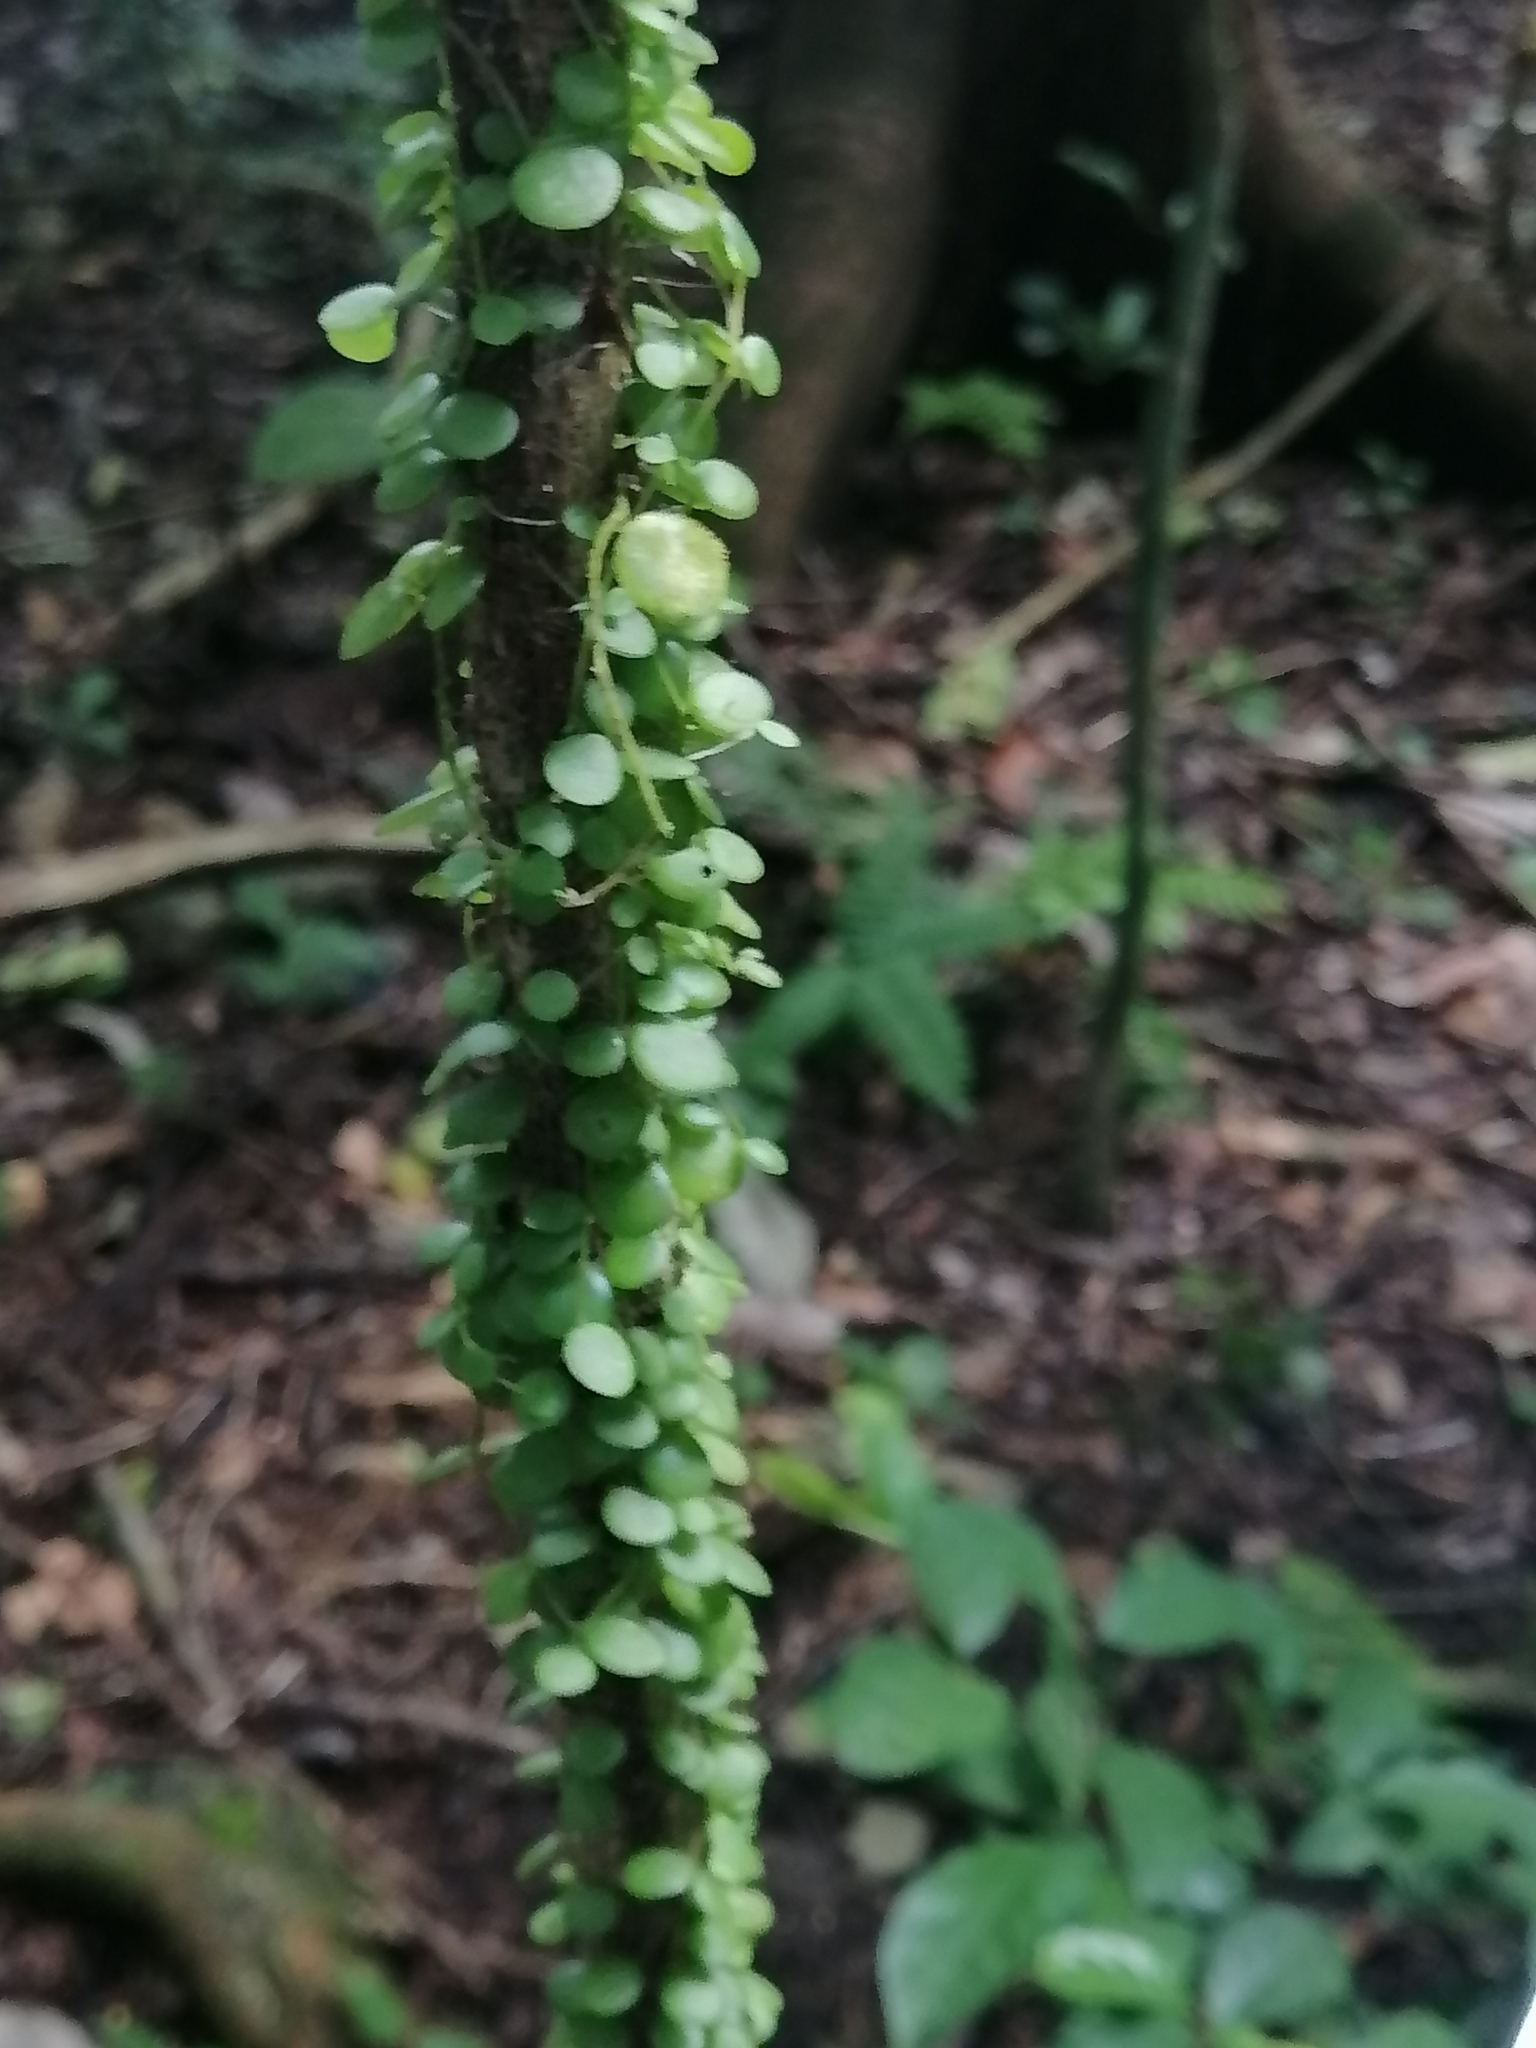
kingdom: Plantae
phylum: Tracheophyta
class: Magnoliopsida
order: Piperales
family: Piperaceae
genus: Peperomia
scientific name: Peperomia rotundifolia
